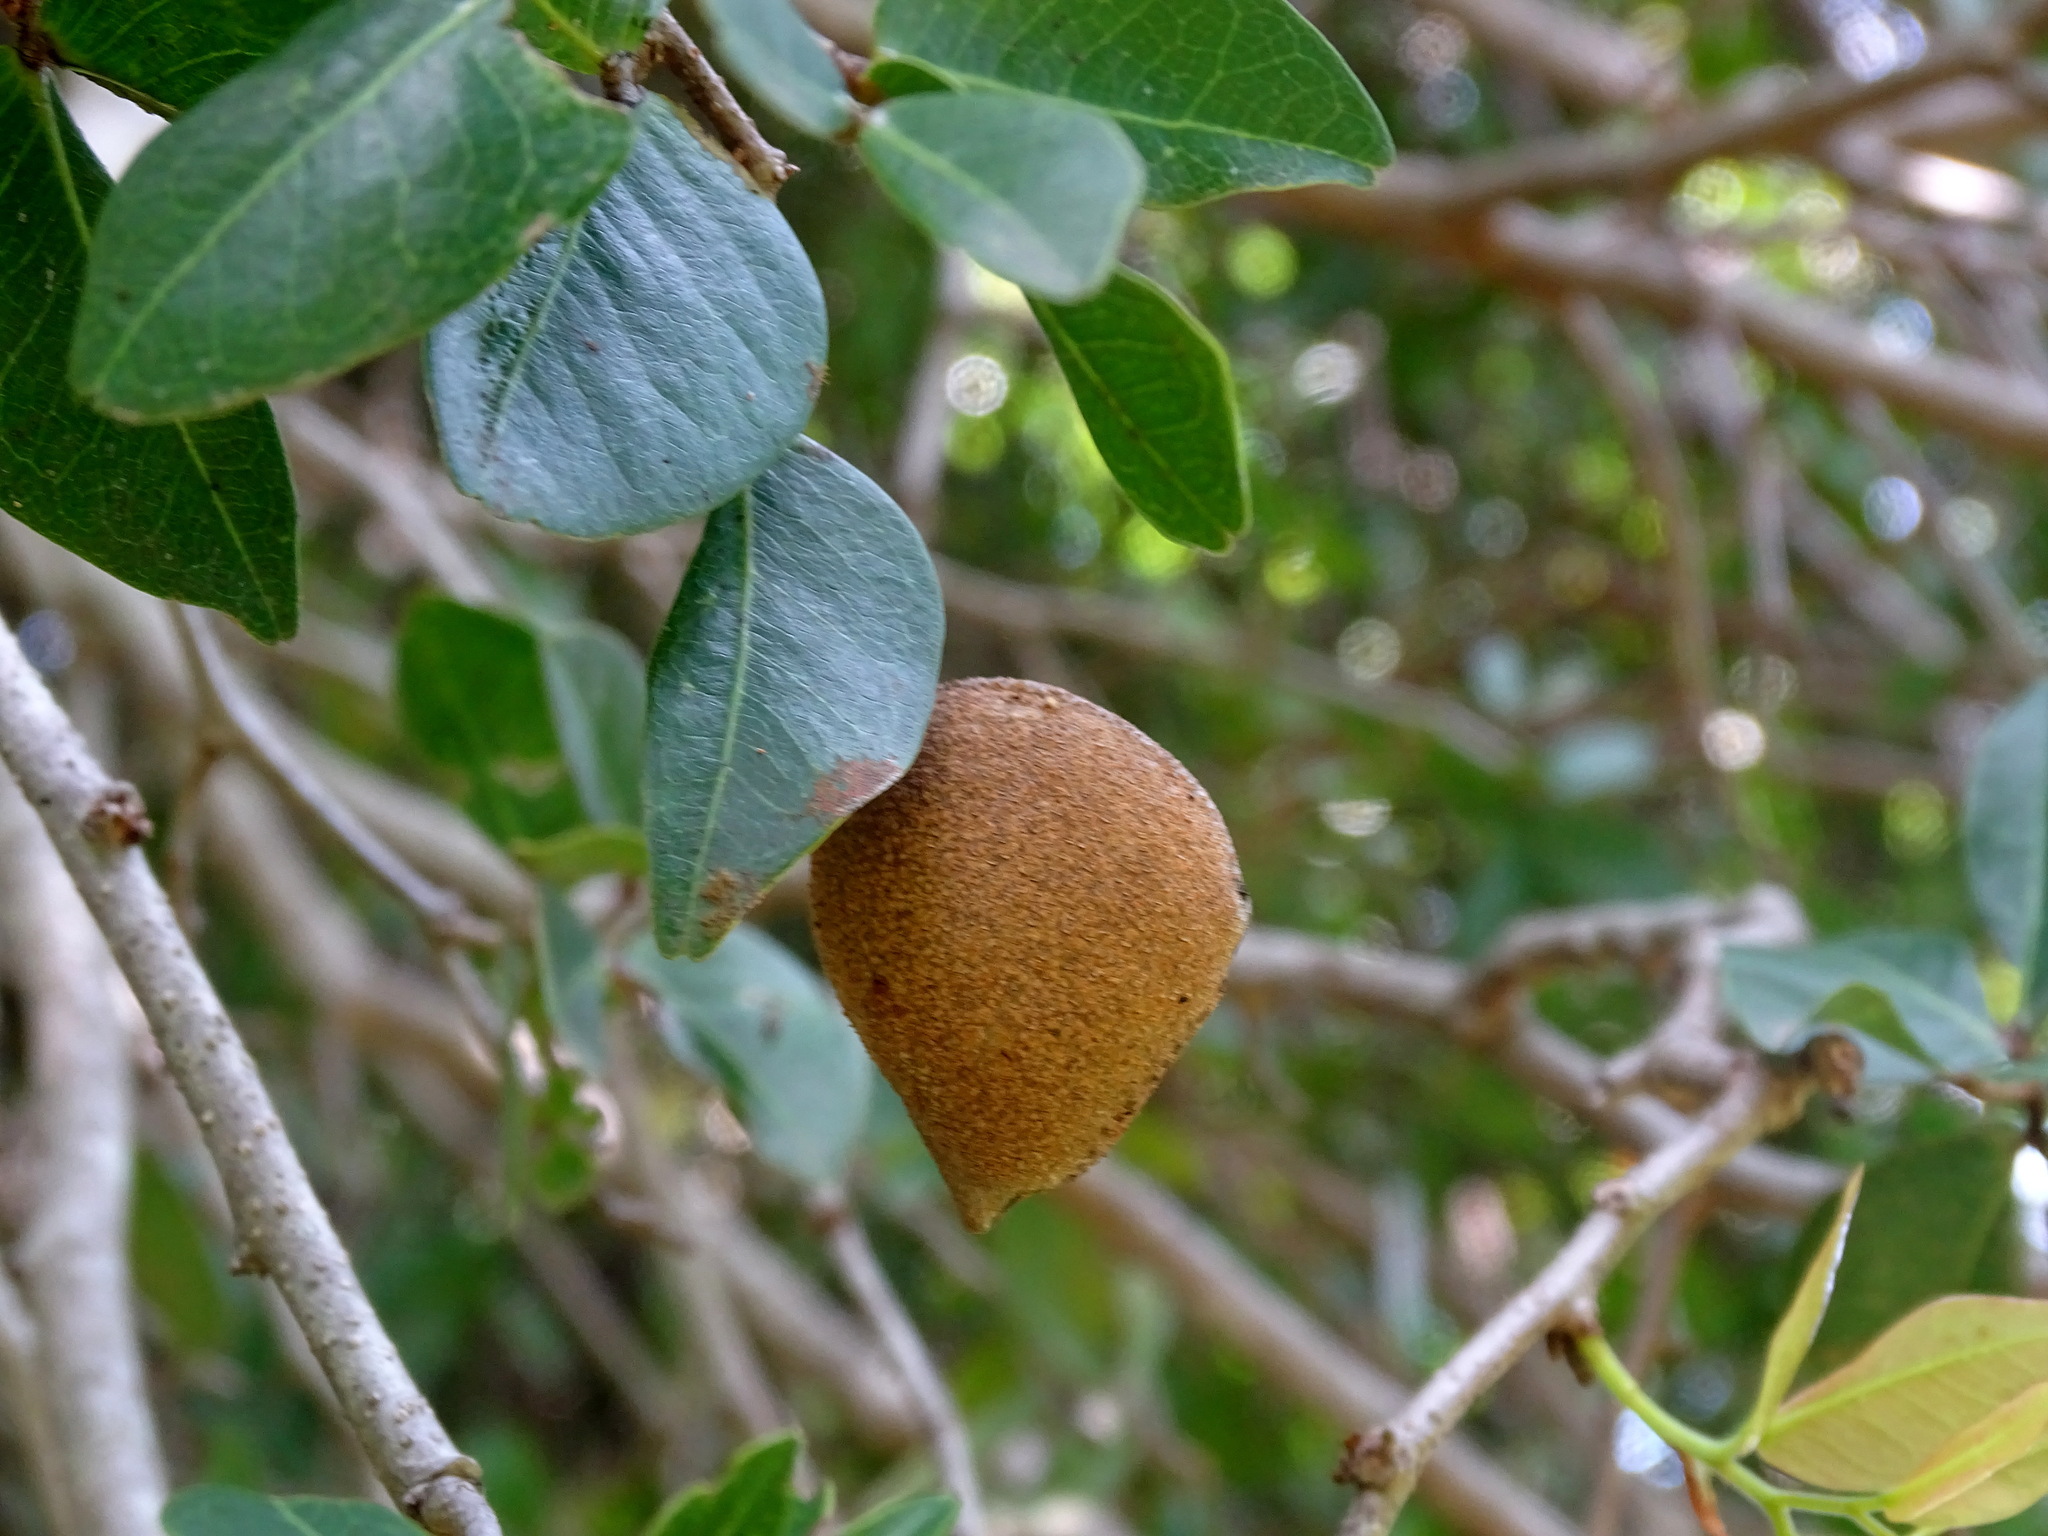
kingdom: Plantae
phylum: Tracheophyta
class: Magnoliopsida
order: Fabales
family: Fabaceae
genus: Cynometra
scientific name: Cynometra oaxacana
